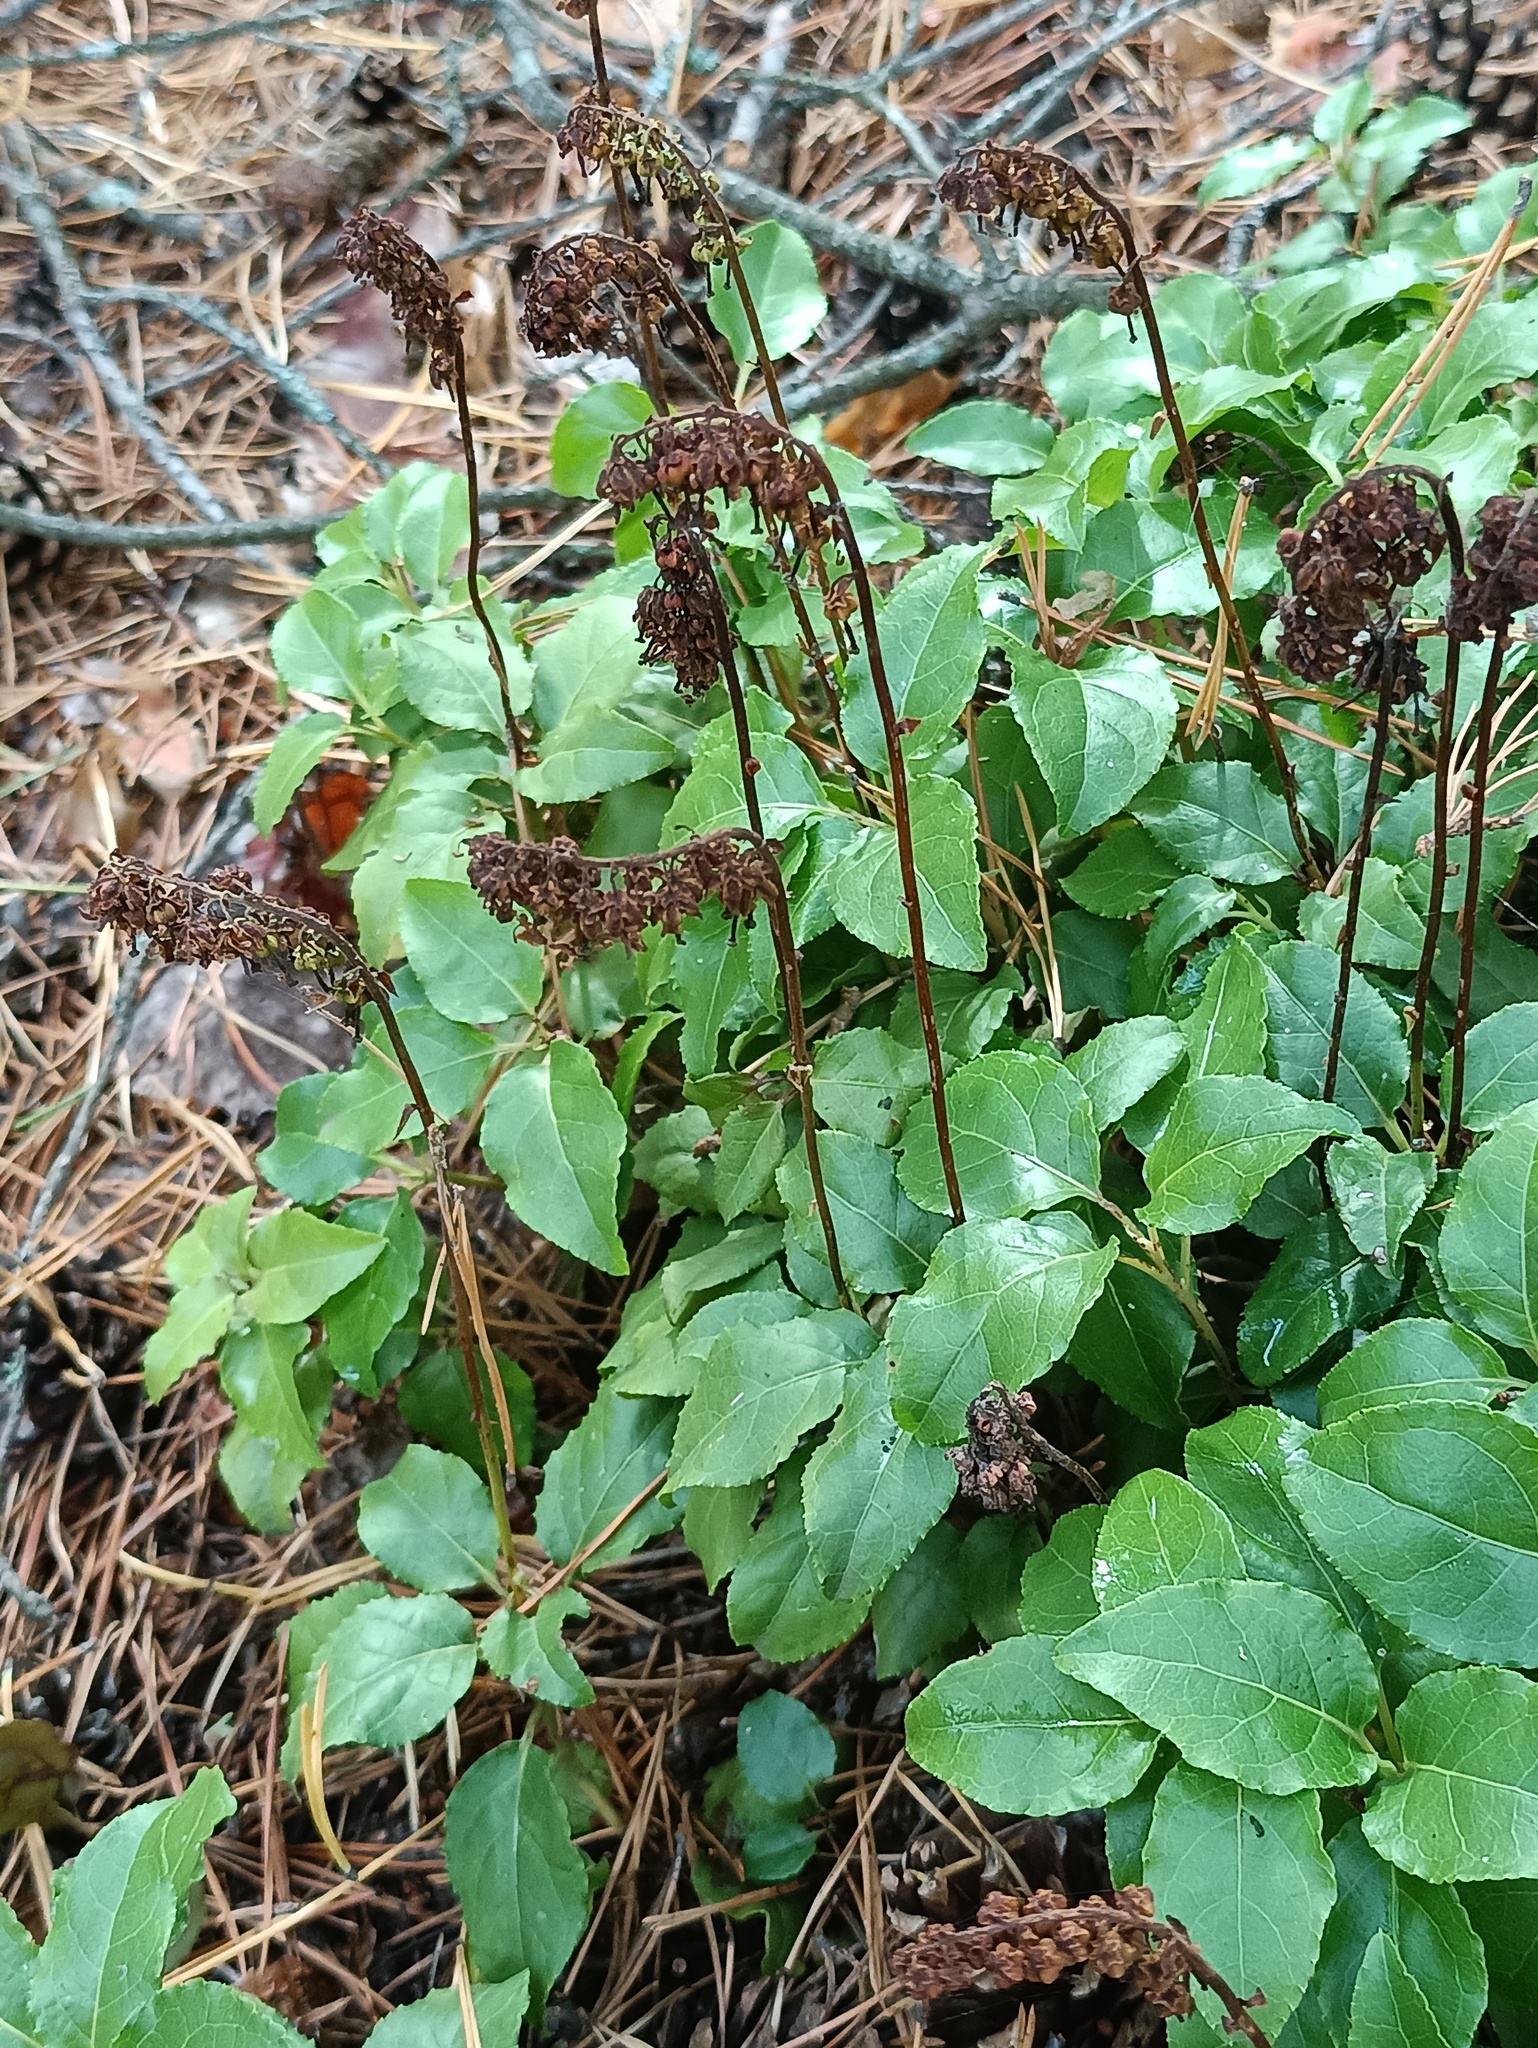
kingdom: Plantae
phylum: Tracheophyta
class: Magnoliopsida
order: Ericales
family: Ericaceae
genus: Orthilia
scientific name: Orthilia secunda
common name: One-sided orthilia
